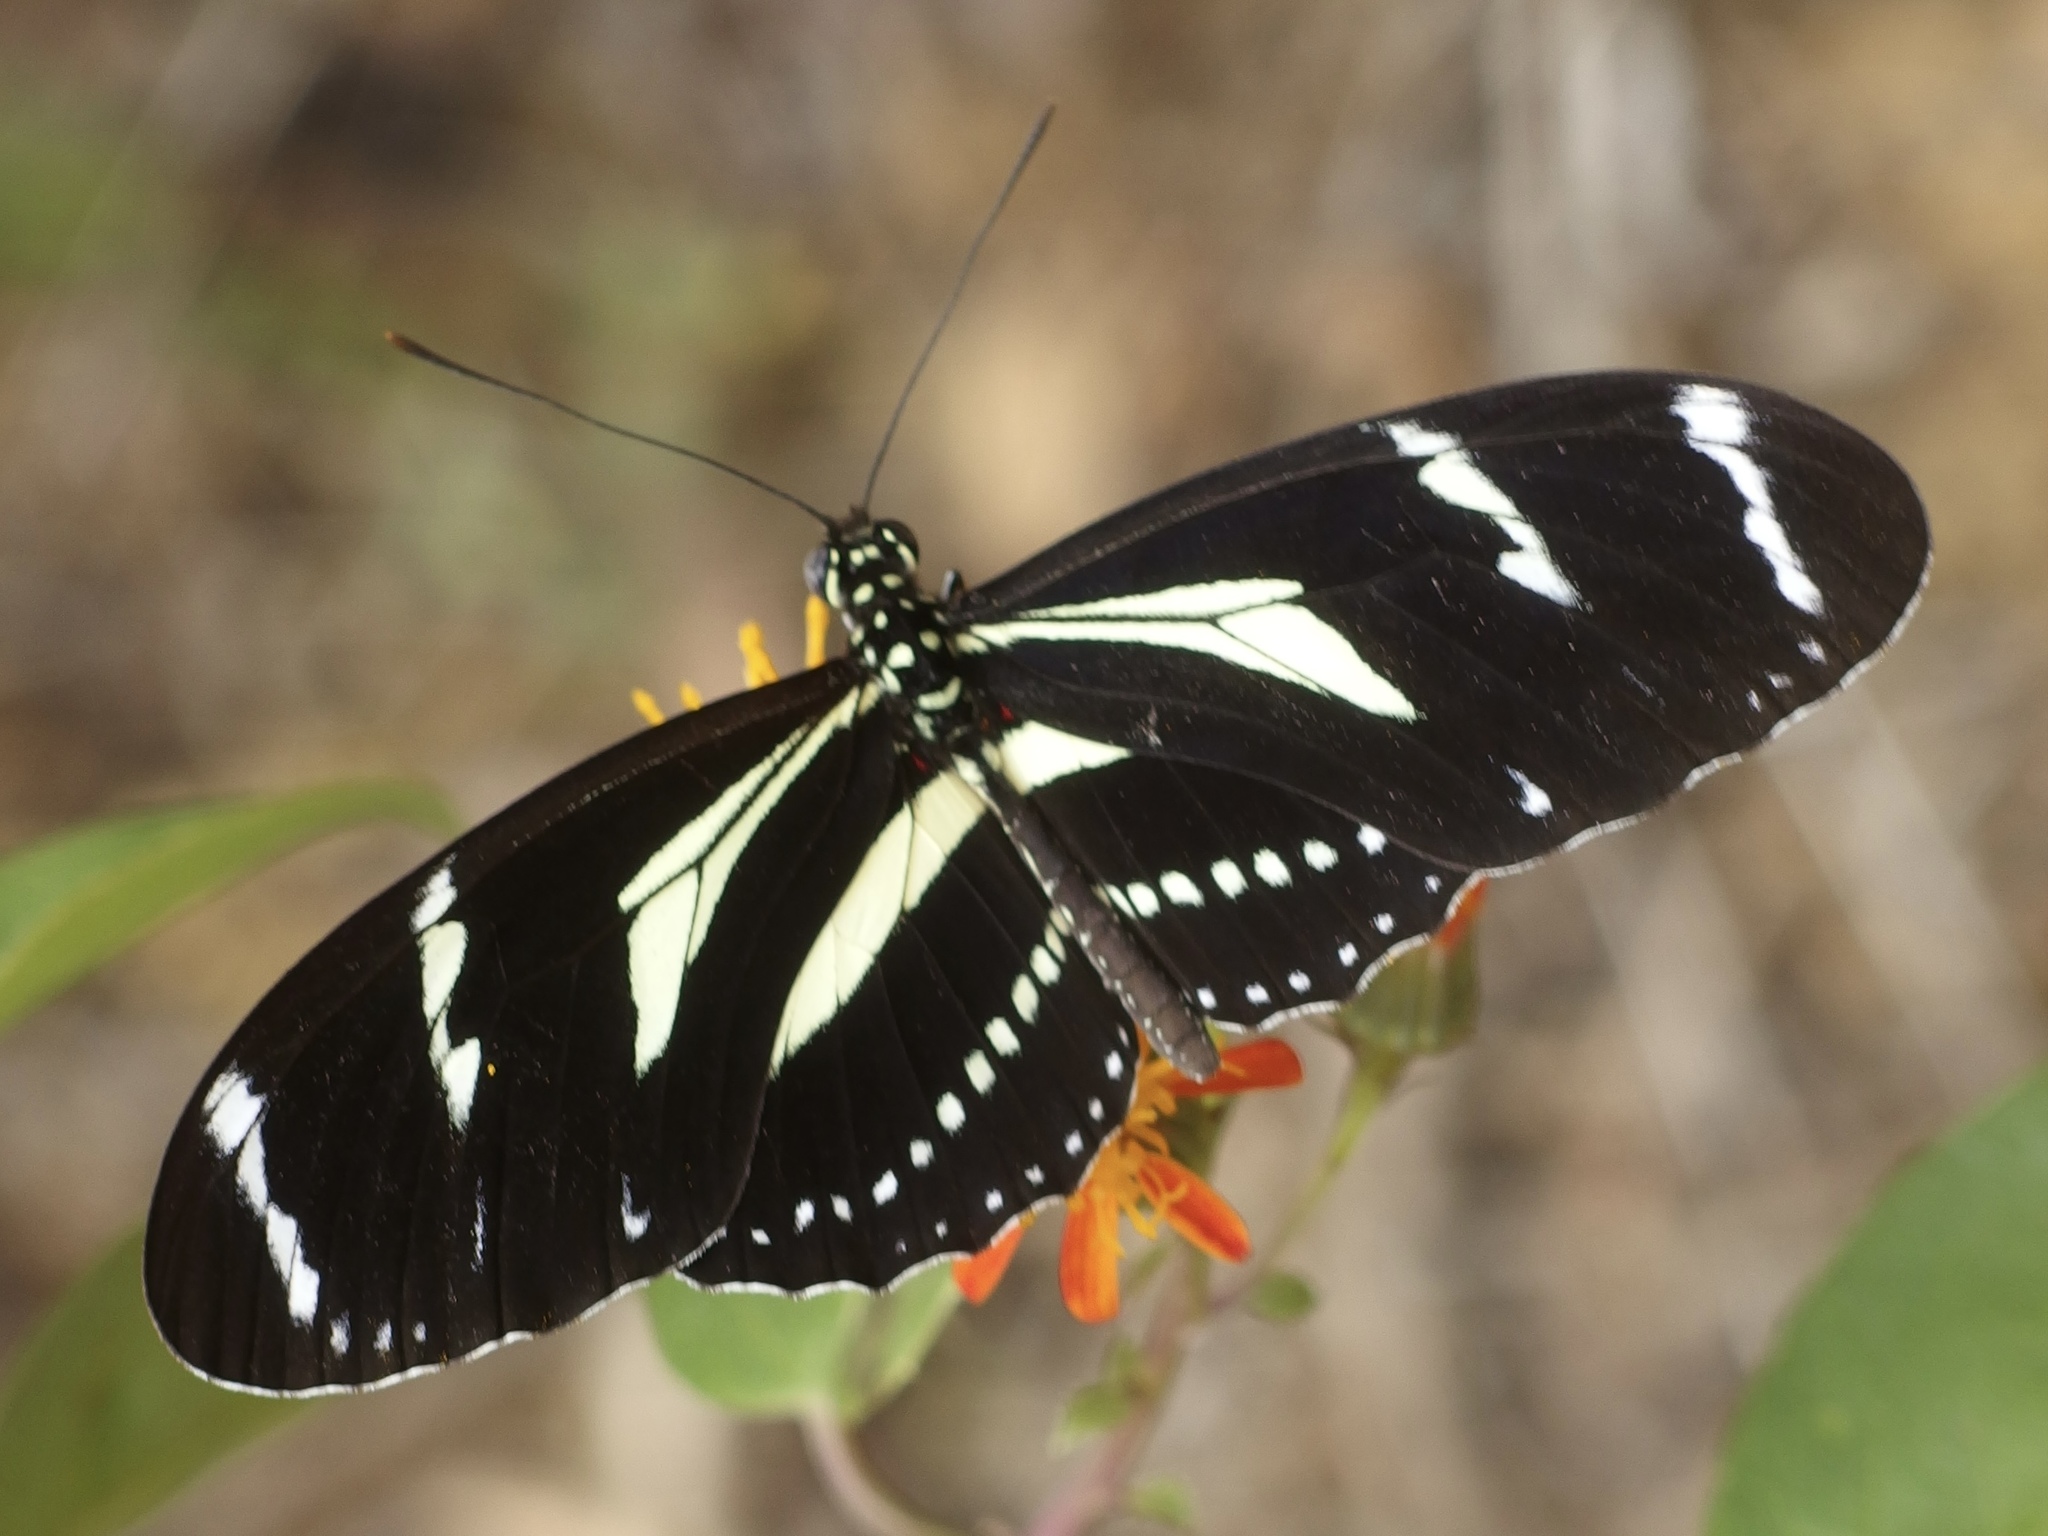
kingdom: Animalia
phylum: Arthropoda
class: Insecta
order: Lepidoptera
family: Nymphalidae
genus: Heliconius
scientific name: Heliconius peruvianus
